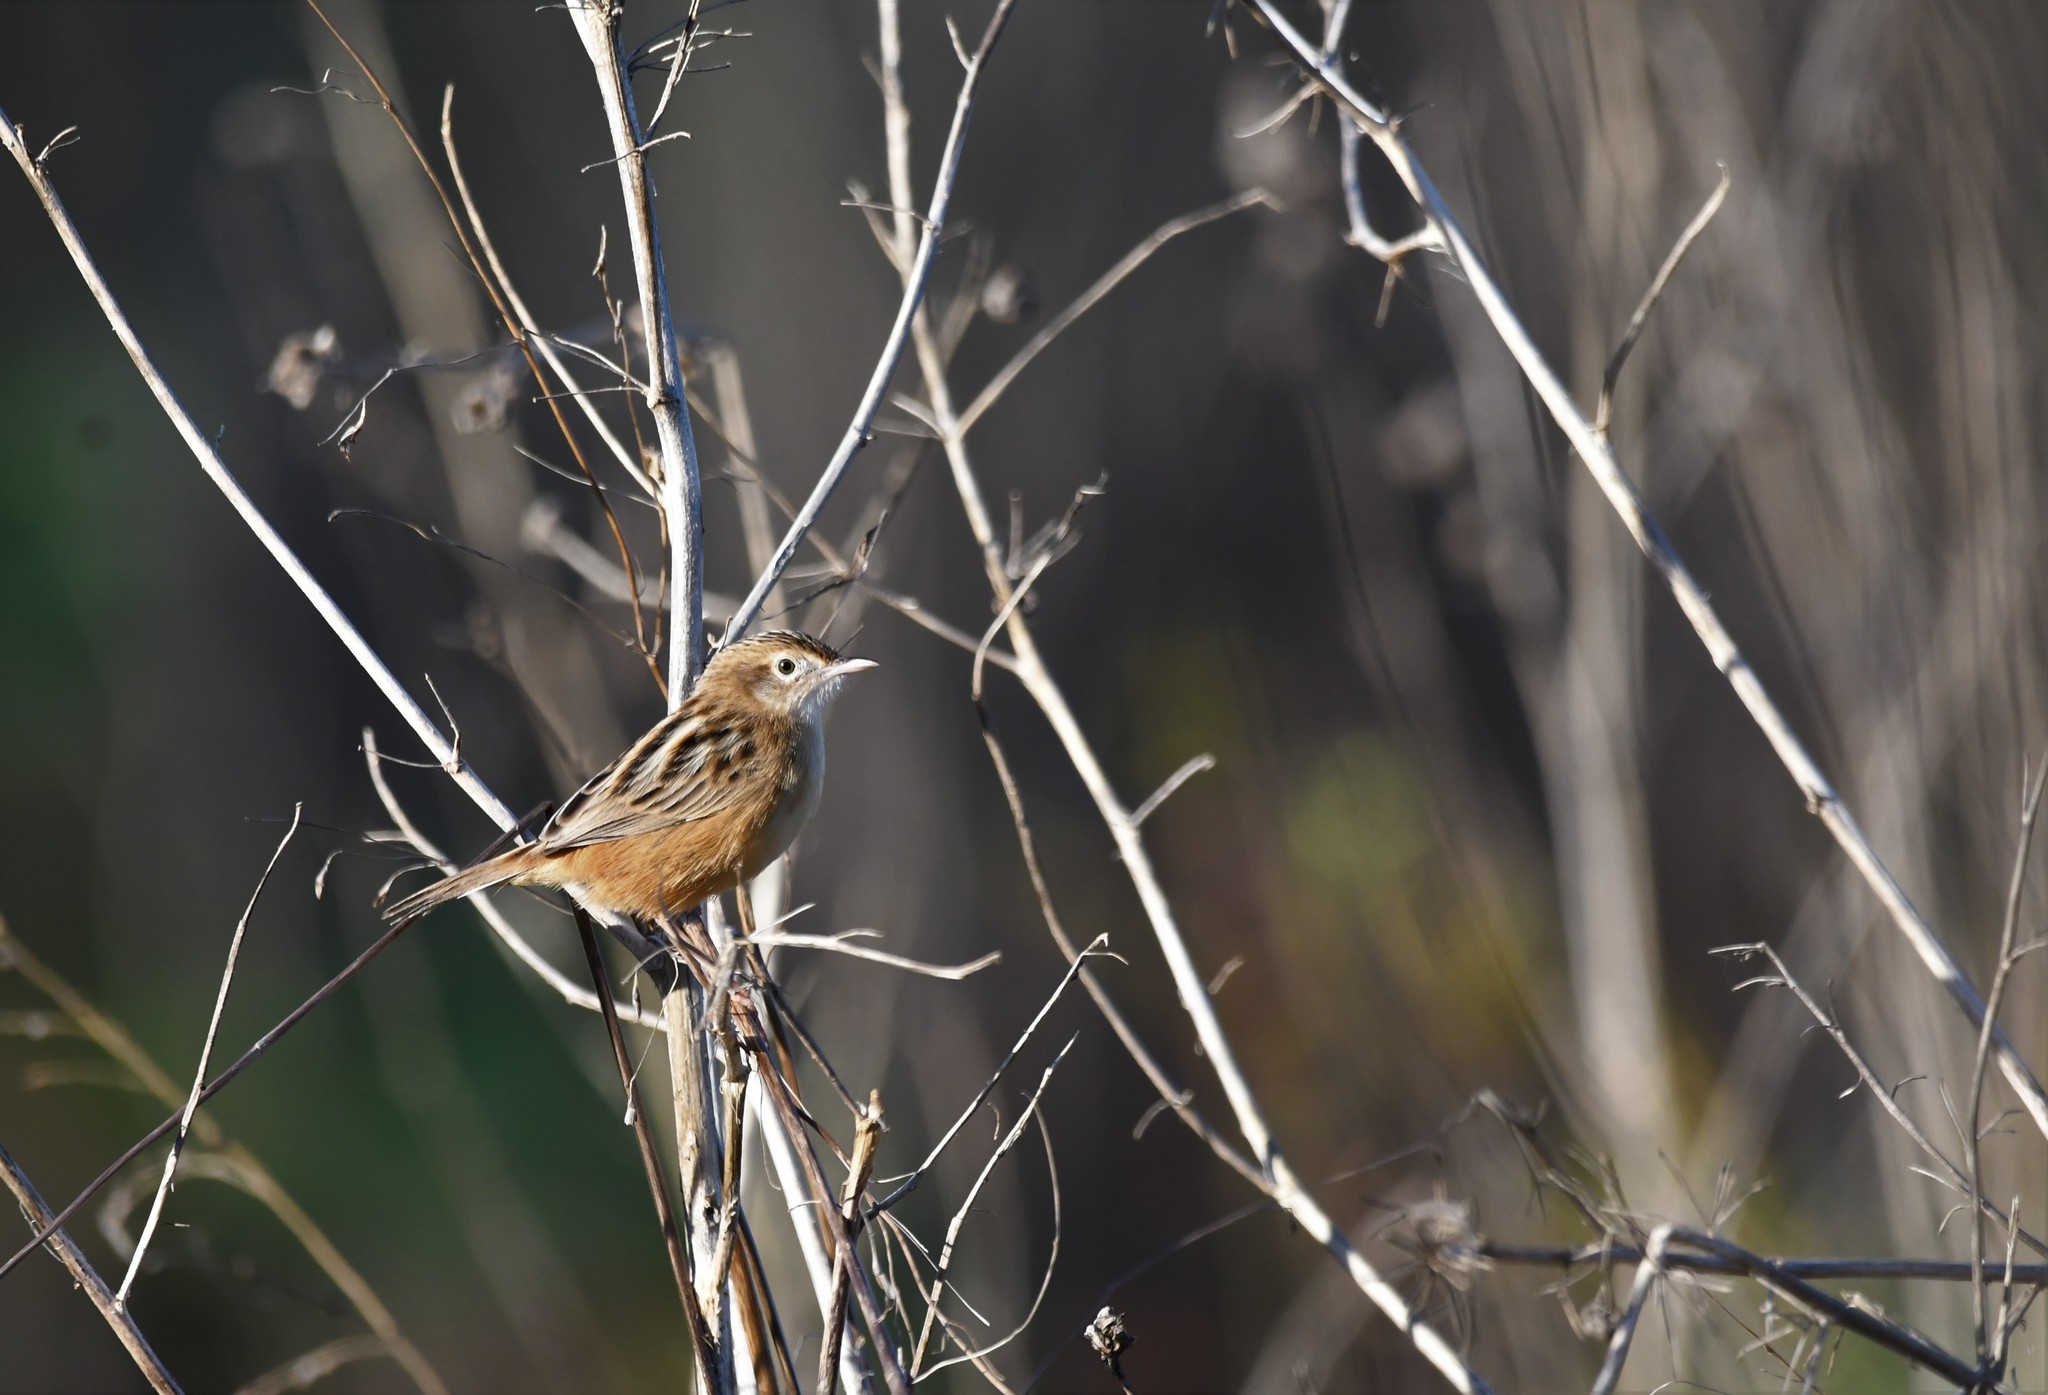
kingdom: Animalia
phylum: Chordata
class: Aves
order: Passeriformes
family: Cisticolidae
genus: Cisticola
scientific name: Cisticola juncidis
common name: Zitting cisticola
